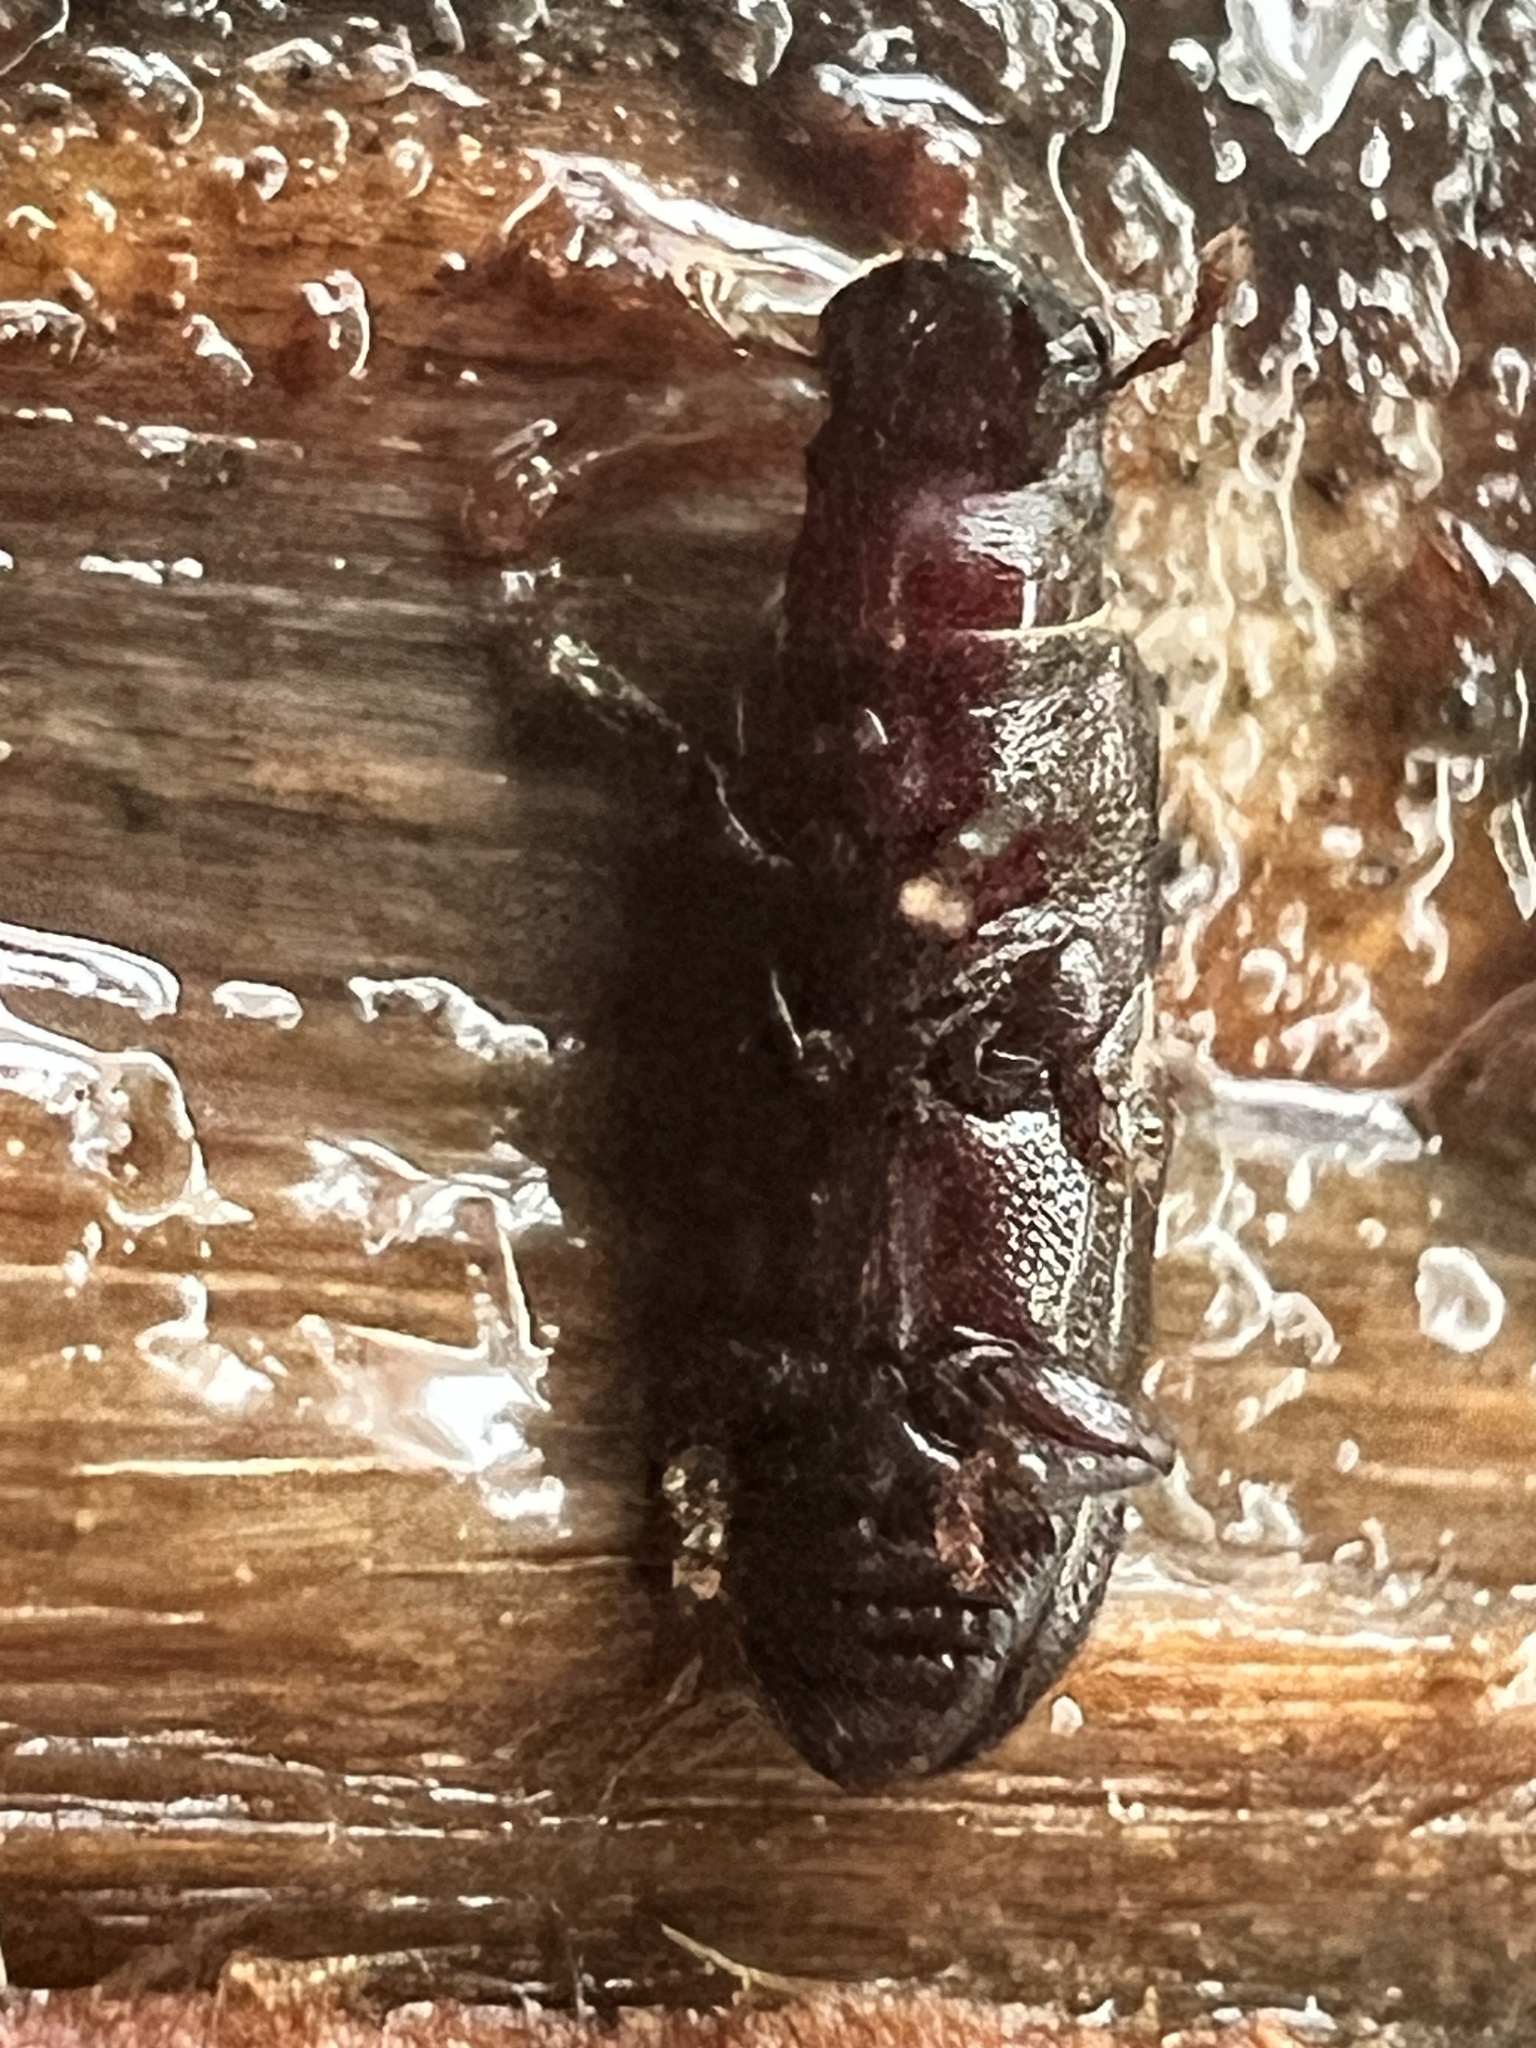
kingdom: Animalia
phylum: Arthropoda
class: Insecta
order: Coleoptera
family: Curculionidae
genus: Xenocnema
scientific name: Xenocnema spinipes
